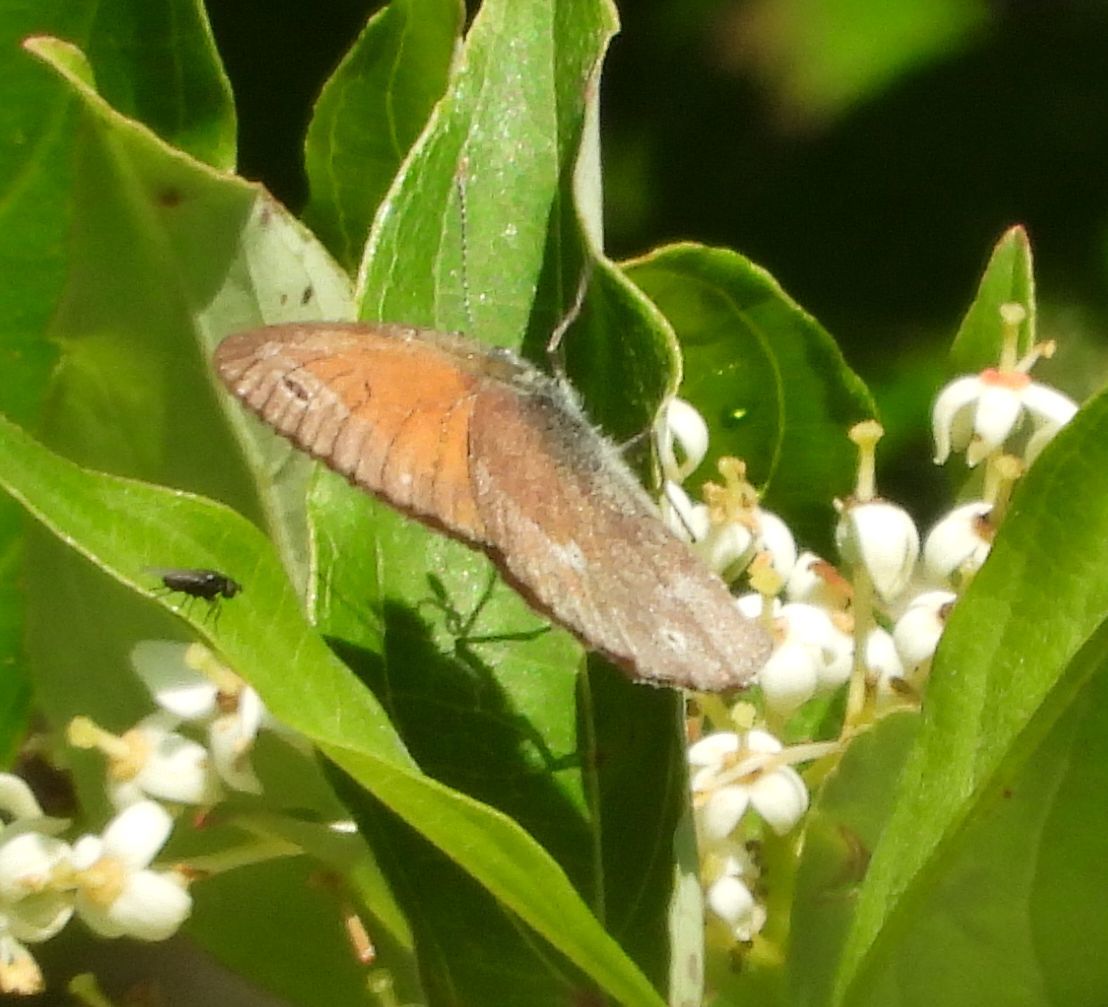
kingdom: Animalia
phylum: Arthropoda
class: Insecta
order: Lepidoptera
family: Nymphalidae
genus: Coenonympha
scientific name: Coenonympha california
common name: Common ringlet
